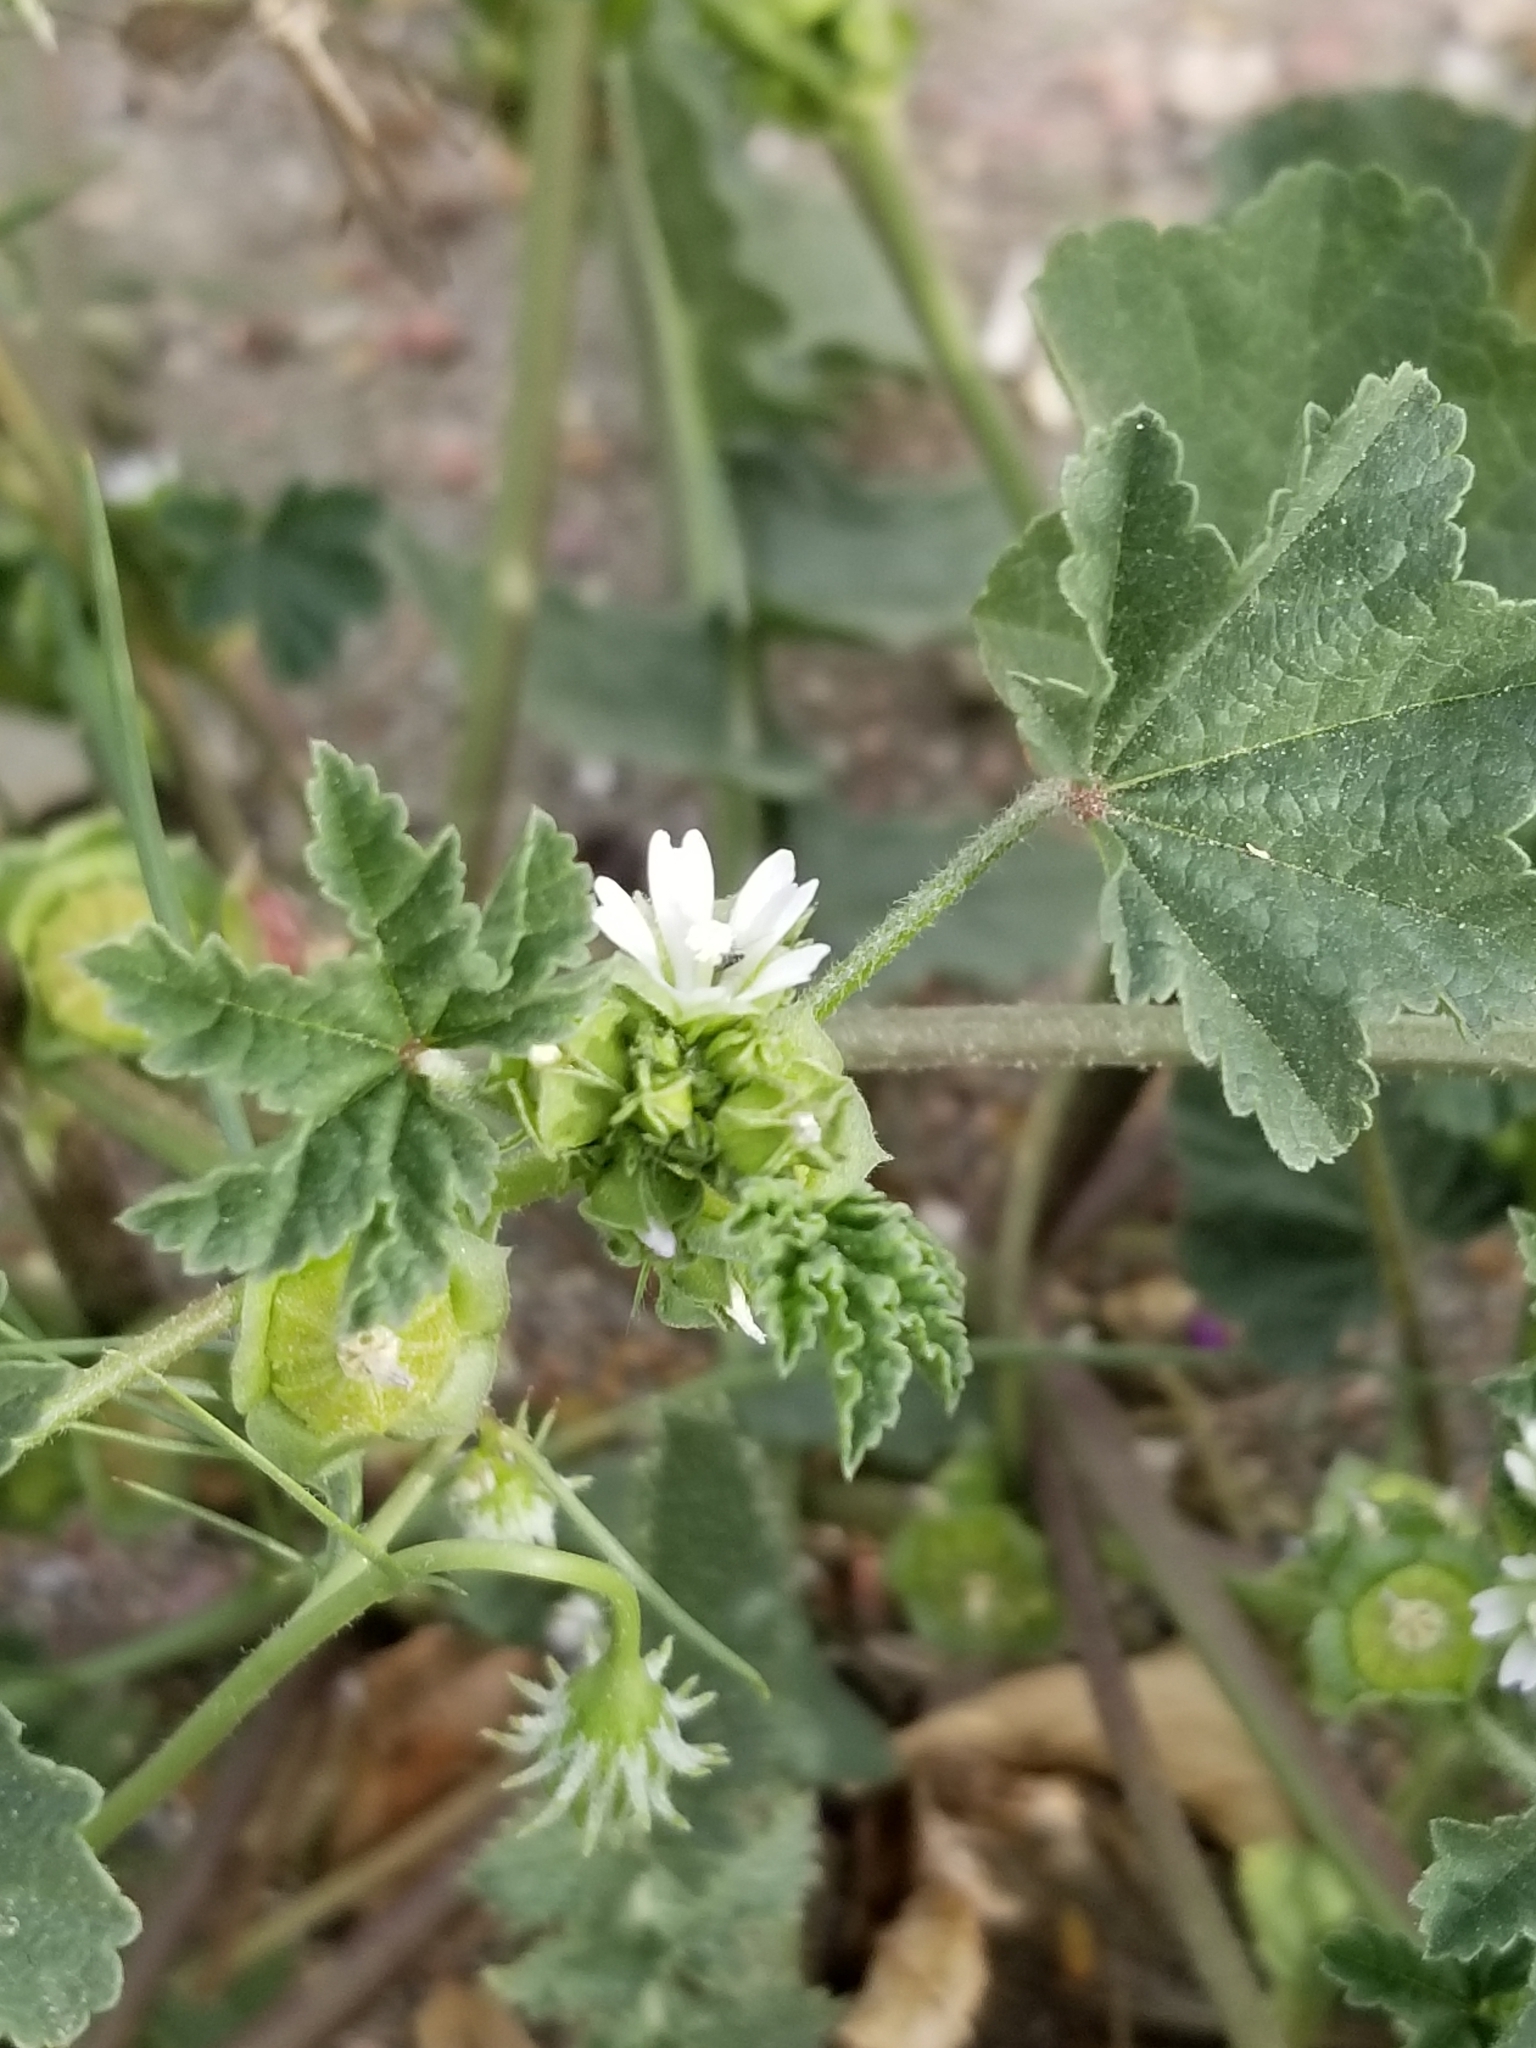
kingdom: Plantae
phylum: Tracheophyta
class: Magnoliopsida
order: Malvales
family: Malvaceae
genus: Malva
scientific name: Malva parviflora
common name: Least mallow
